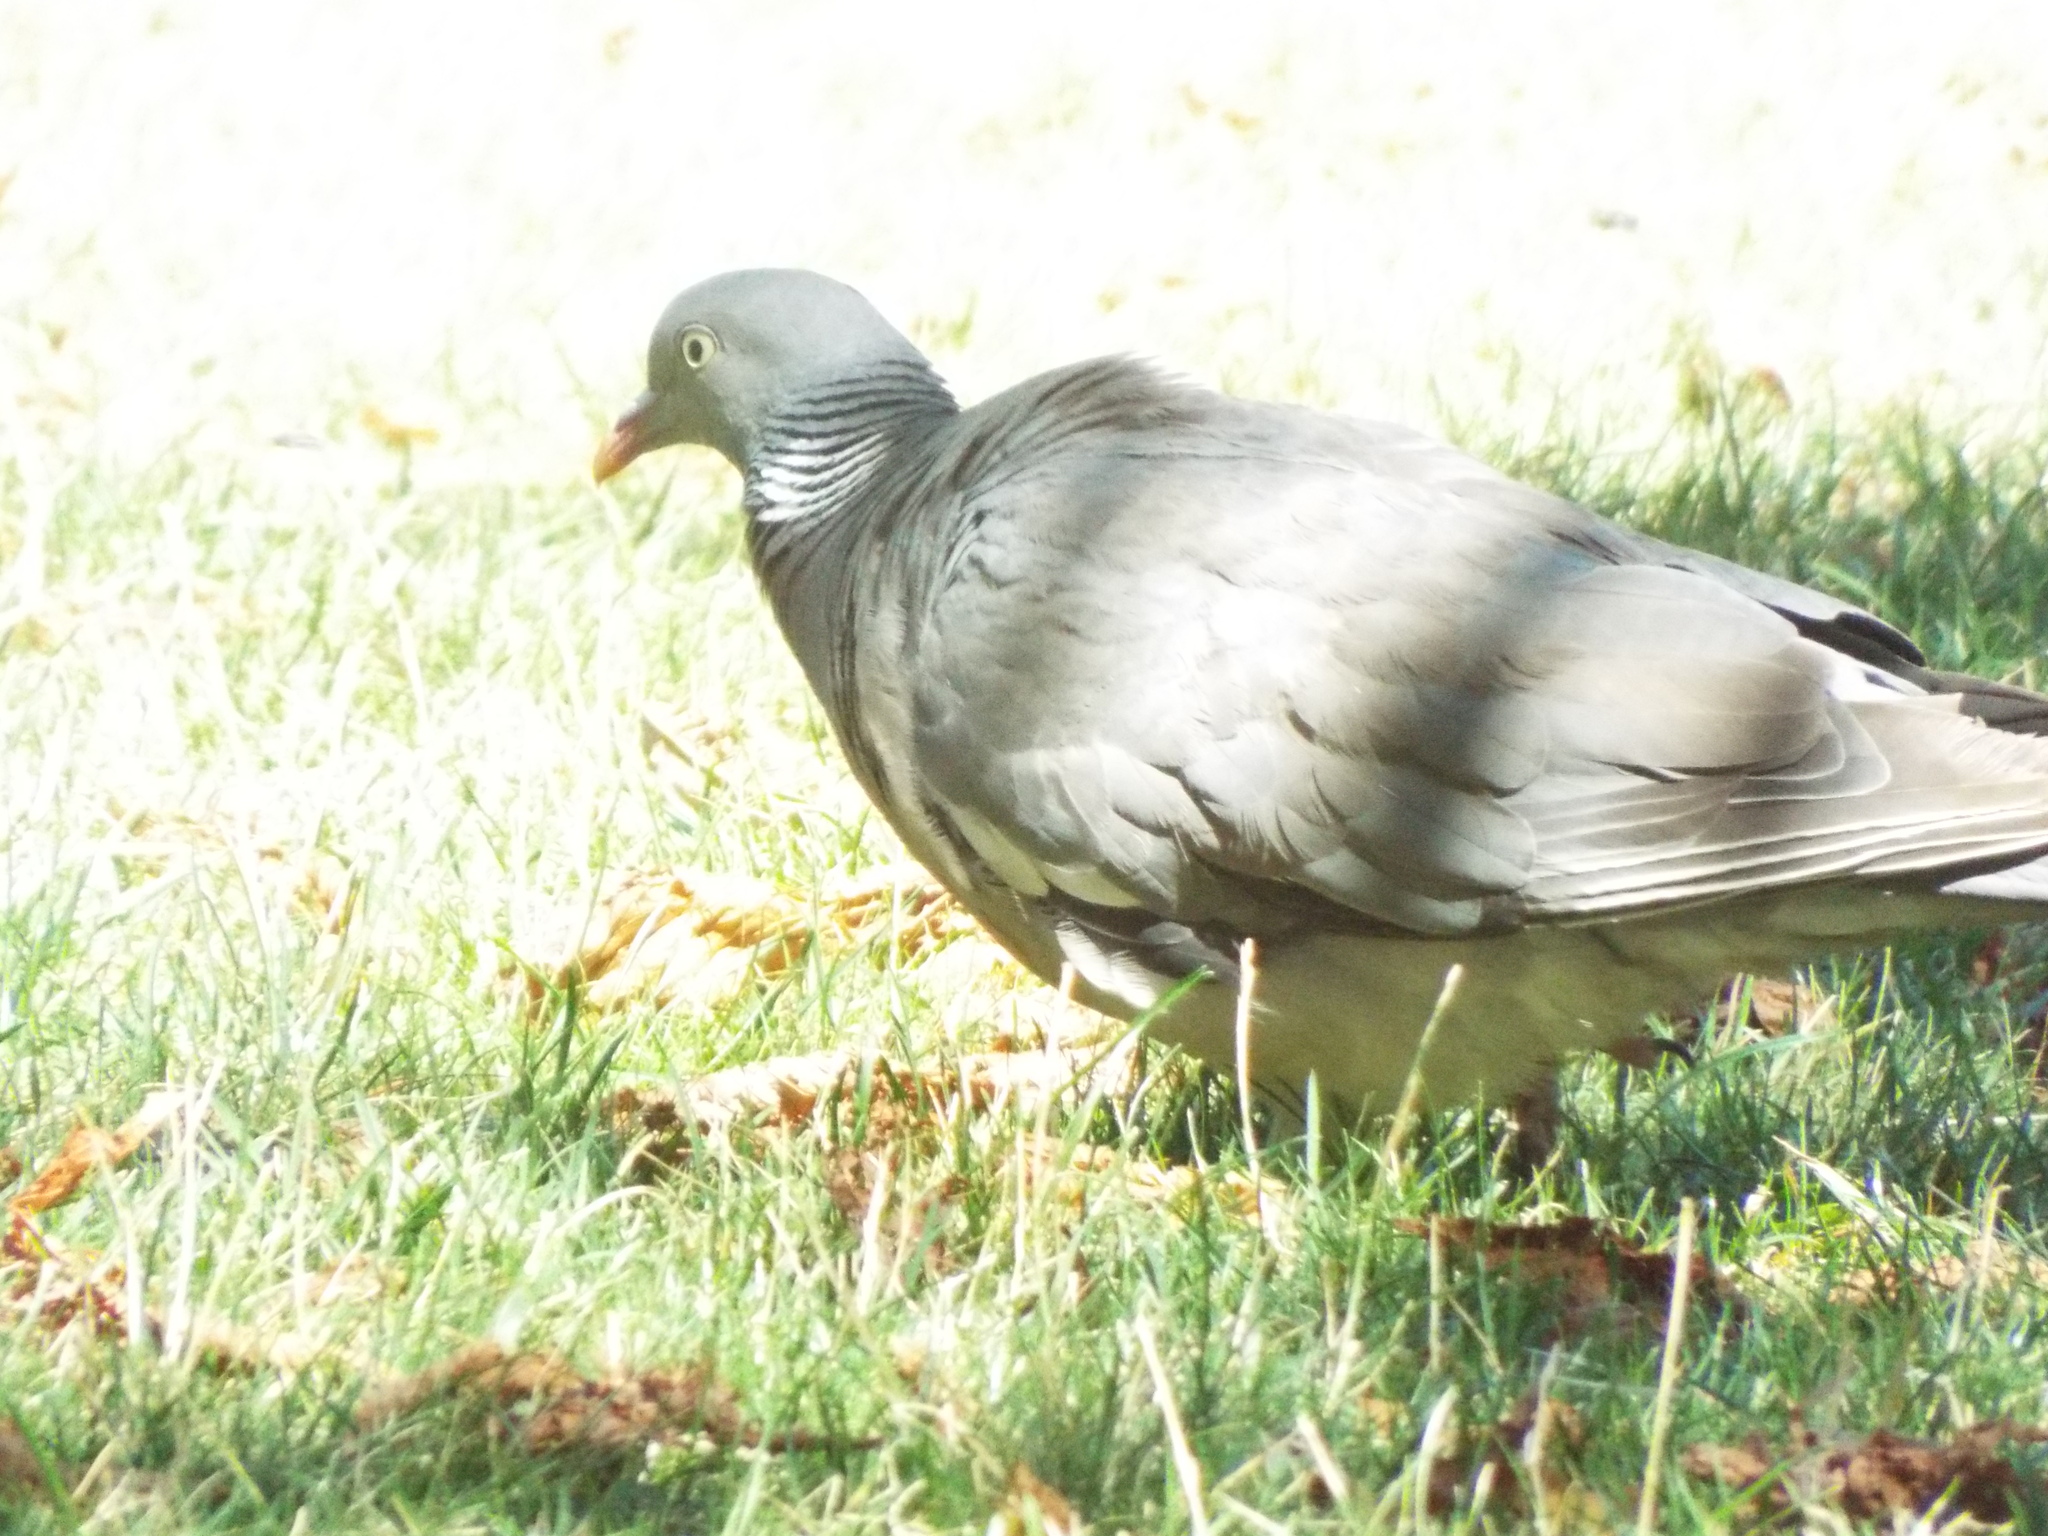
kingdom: Animalia
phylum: Chordata
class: Aves
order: Columbiformes
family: Columbidae
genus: Columba
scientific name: Columba palumbus
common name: Common wood pigeon
